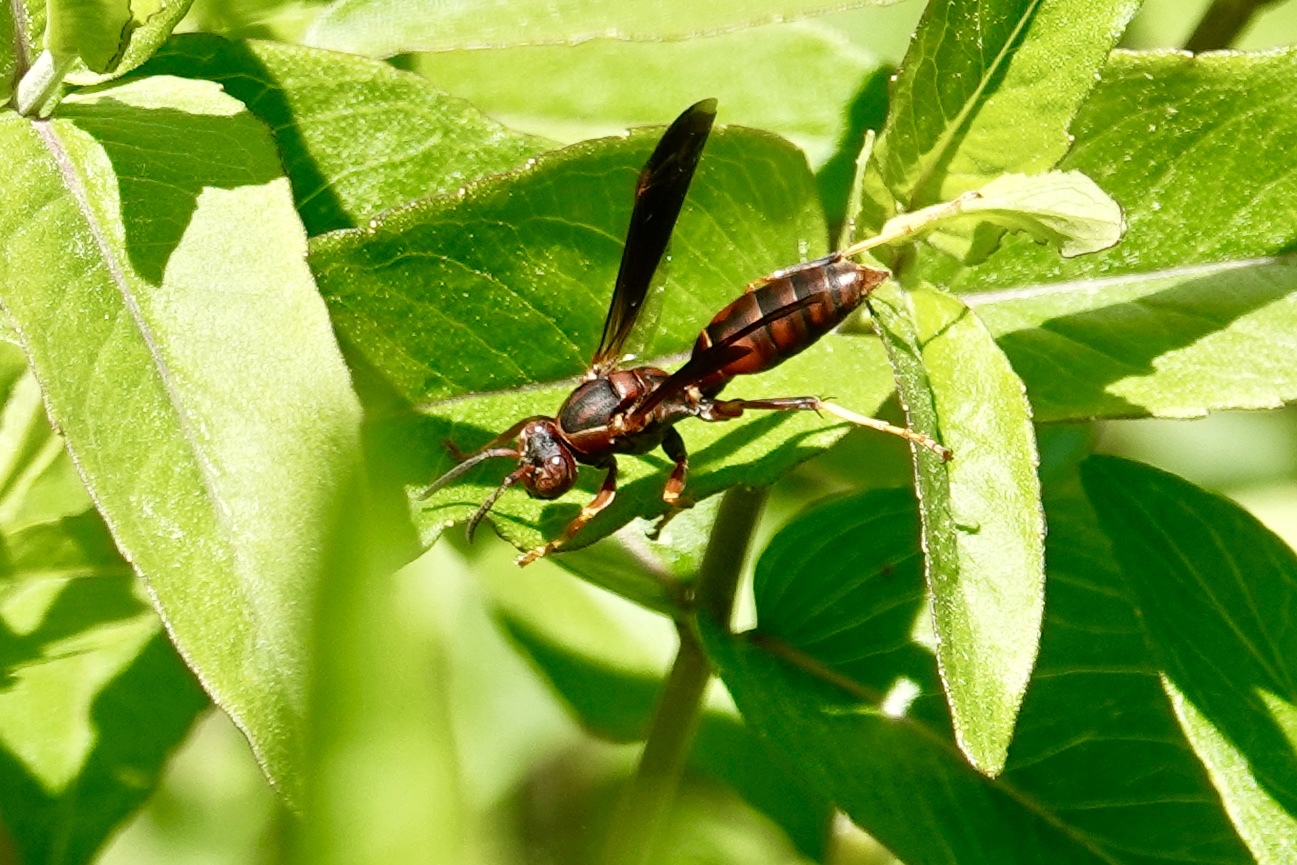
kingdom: Animalia
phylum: Arthropoda
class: Insecta
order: Hymenoptera
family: Eumenidae
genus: Polistes
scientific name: Polistes fuscatus
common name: Dark paper wasp
